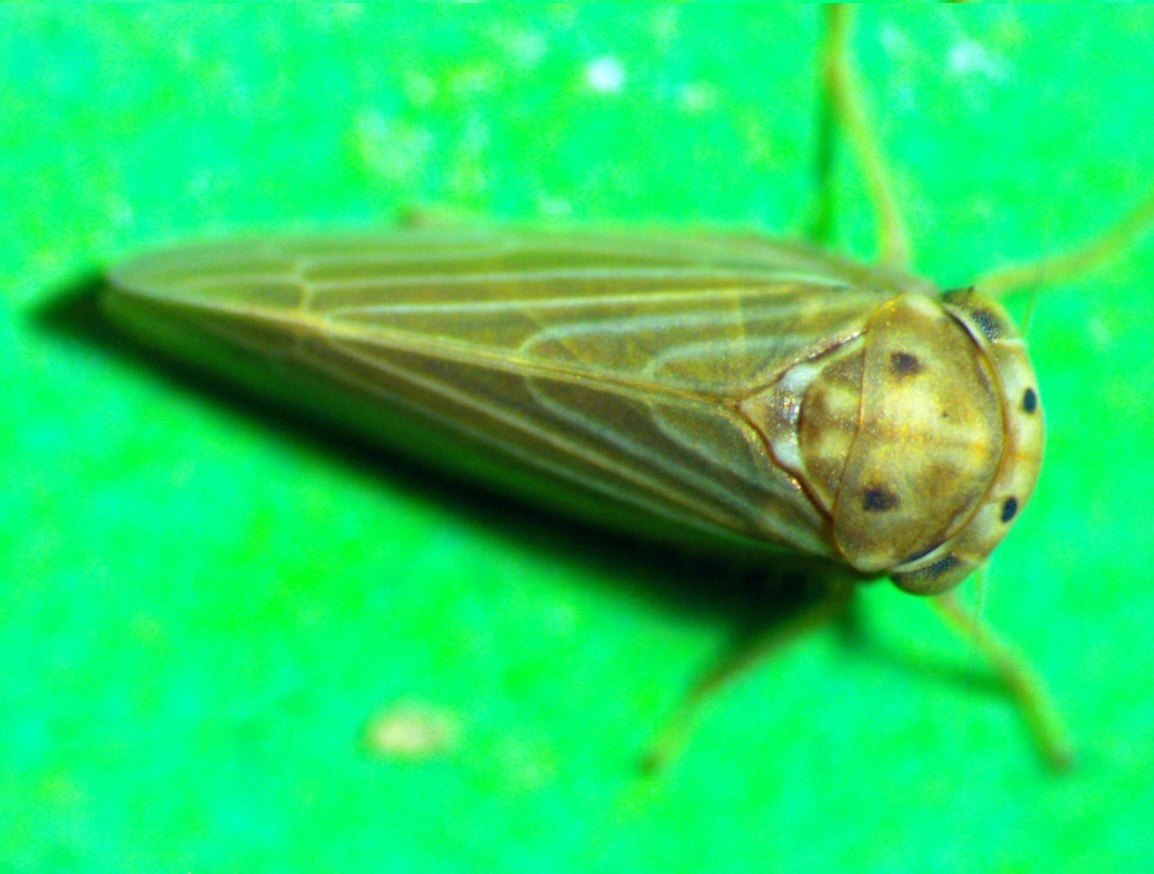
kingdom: Animalia
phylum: Arthropoda
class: Insecta
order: Hemiptera
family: Cicadellidae
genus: Agallia
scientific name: Agallia constricta
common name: The constricted leafhopper
